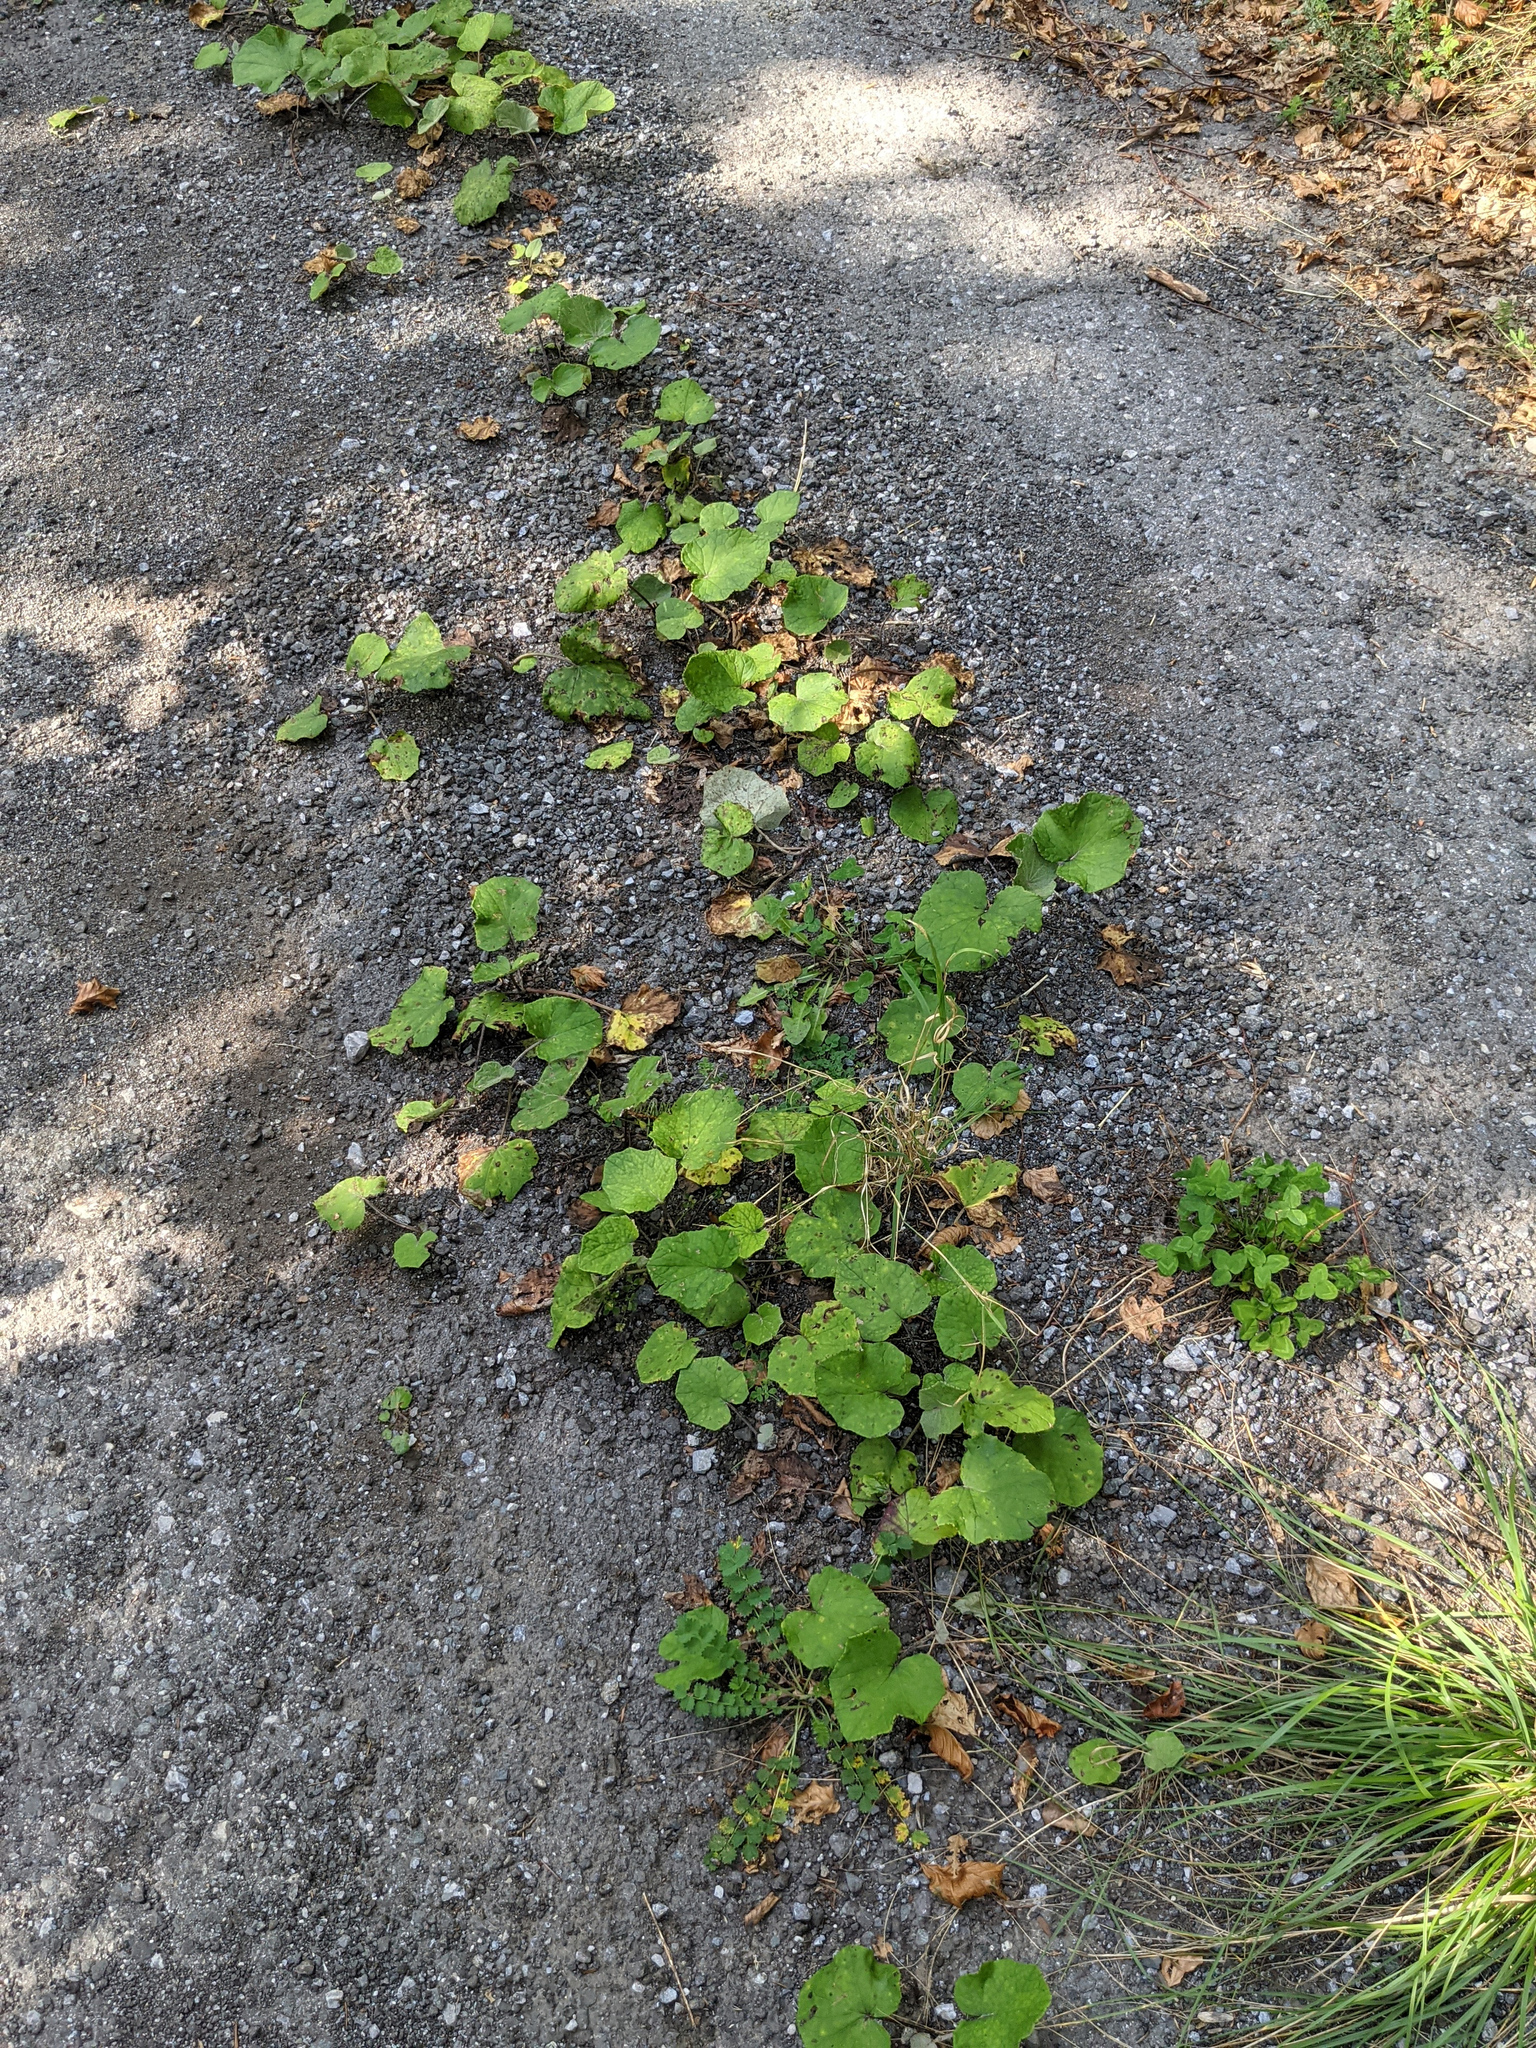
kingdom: Plantae
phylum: Tracheophyta
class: Magnoliopsida
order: Asterales
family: Asteraceae
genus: Tussilago
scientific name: Tussilago farfara
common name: Coltsfoot
